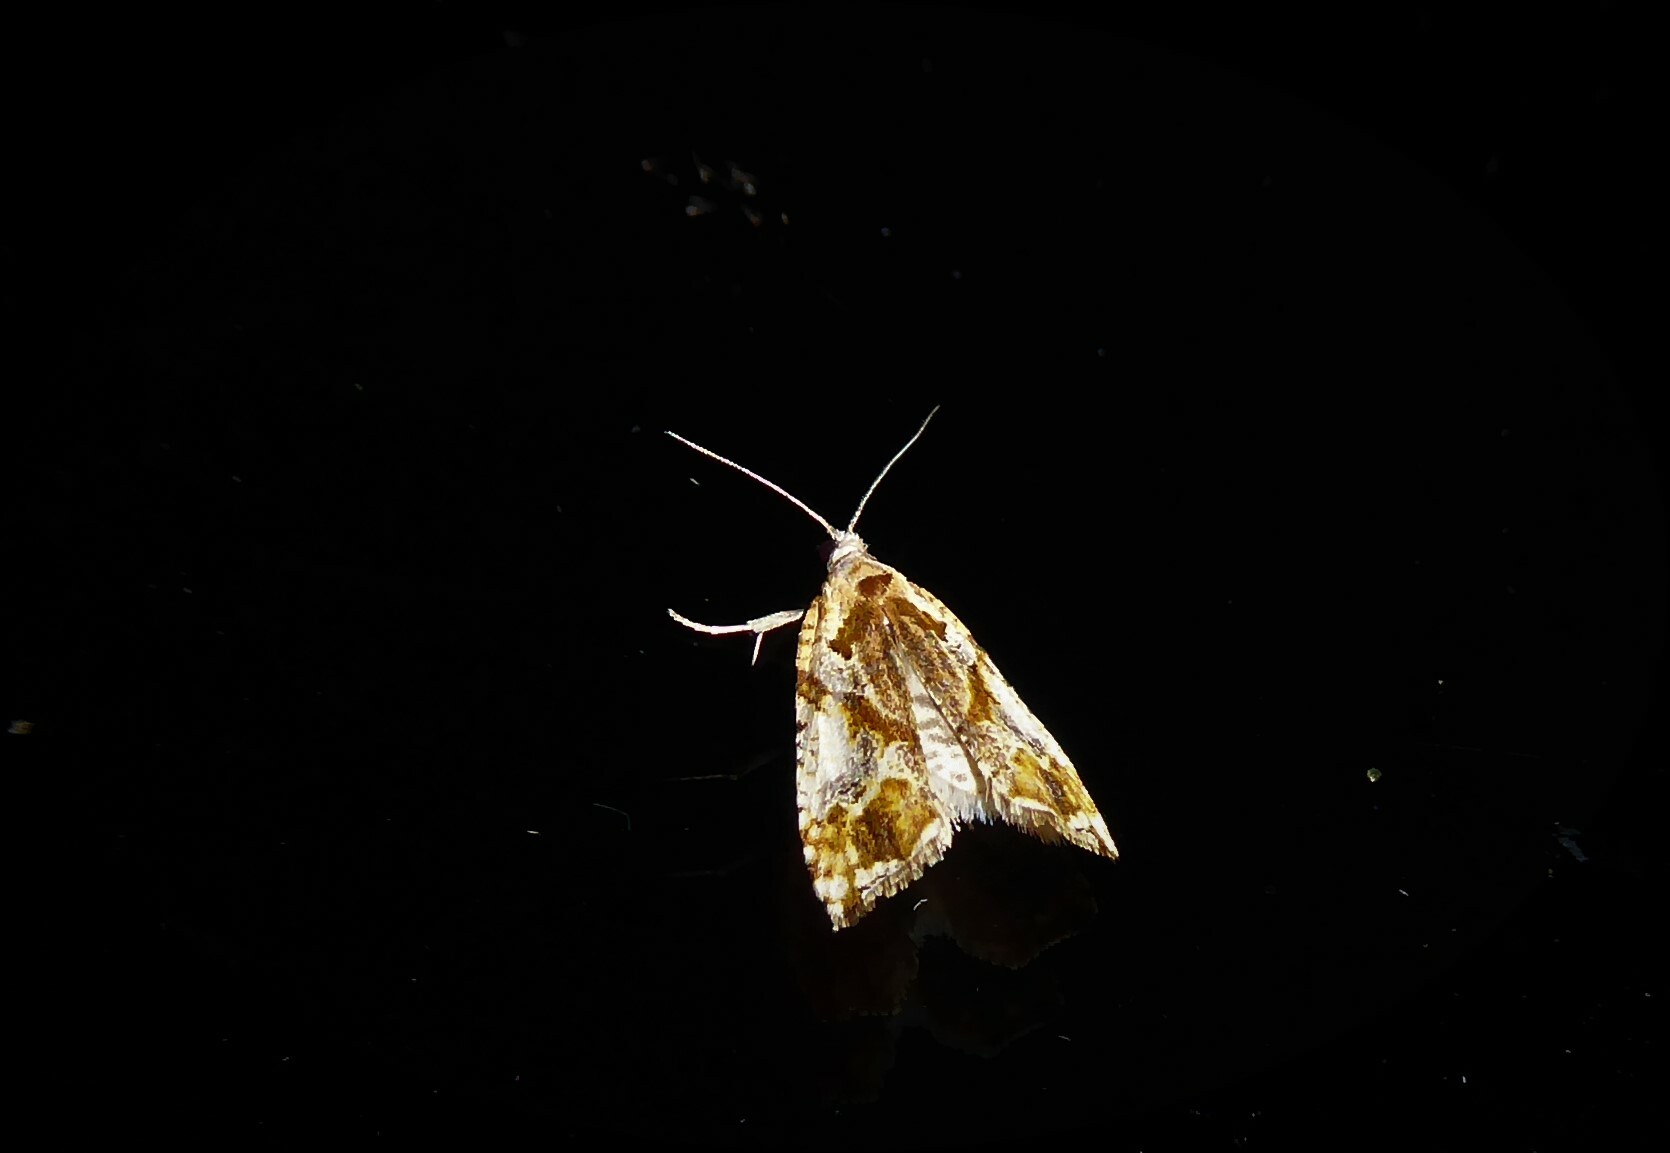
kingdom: Animalia
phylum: Arthropoda
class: Insecta
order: Lepidoptera
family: Tortricidae
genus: Pyrgotis
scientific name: Pyrgotis plagiatana
